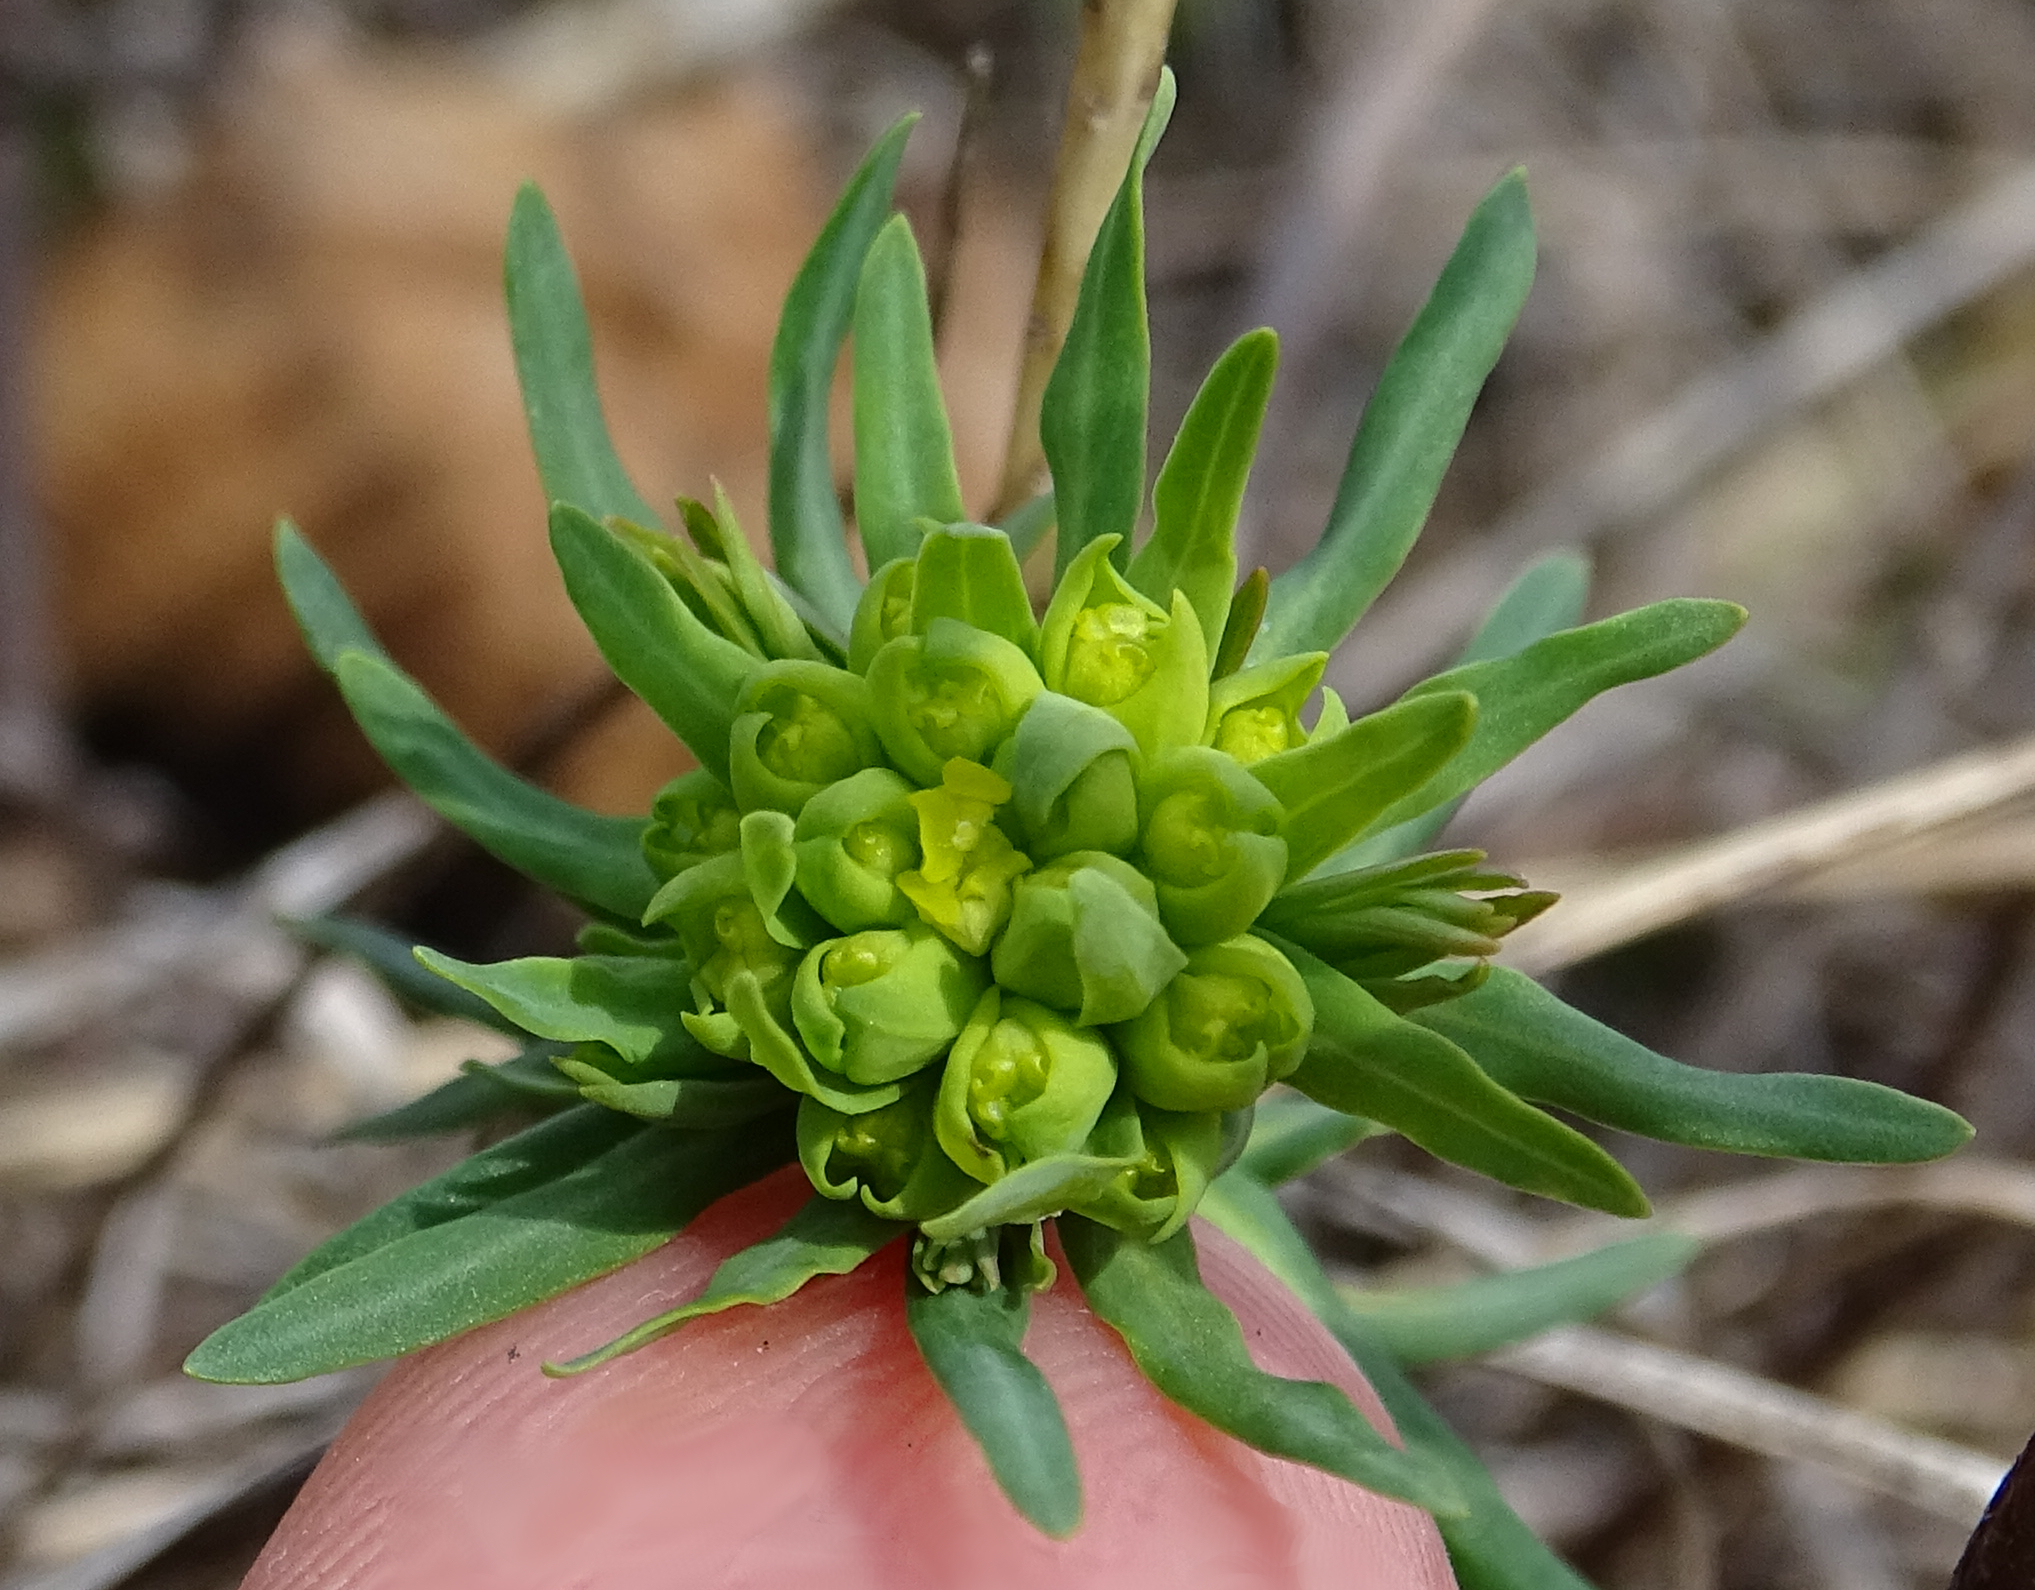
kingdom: Plantae
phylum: Tracheophyta
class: Magnoliopsida
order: Malpighiales
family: Euphorbiaceae
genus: Euphorbia
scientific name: Euphorbia cyparissias
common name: Cypress spurge
